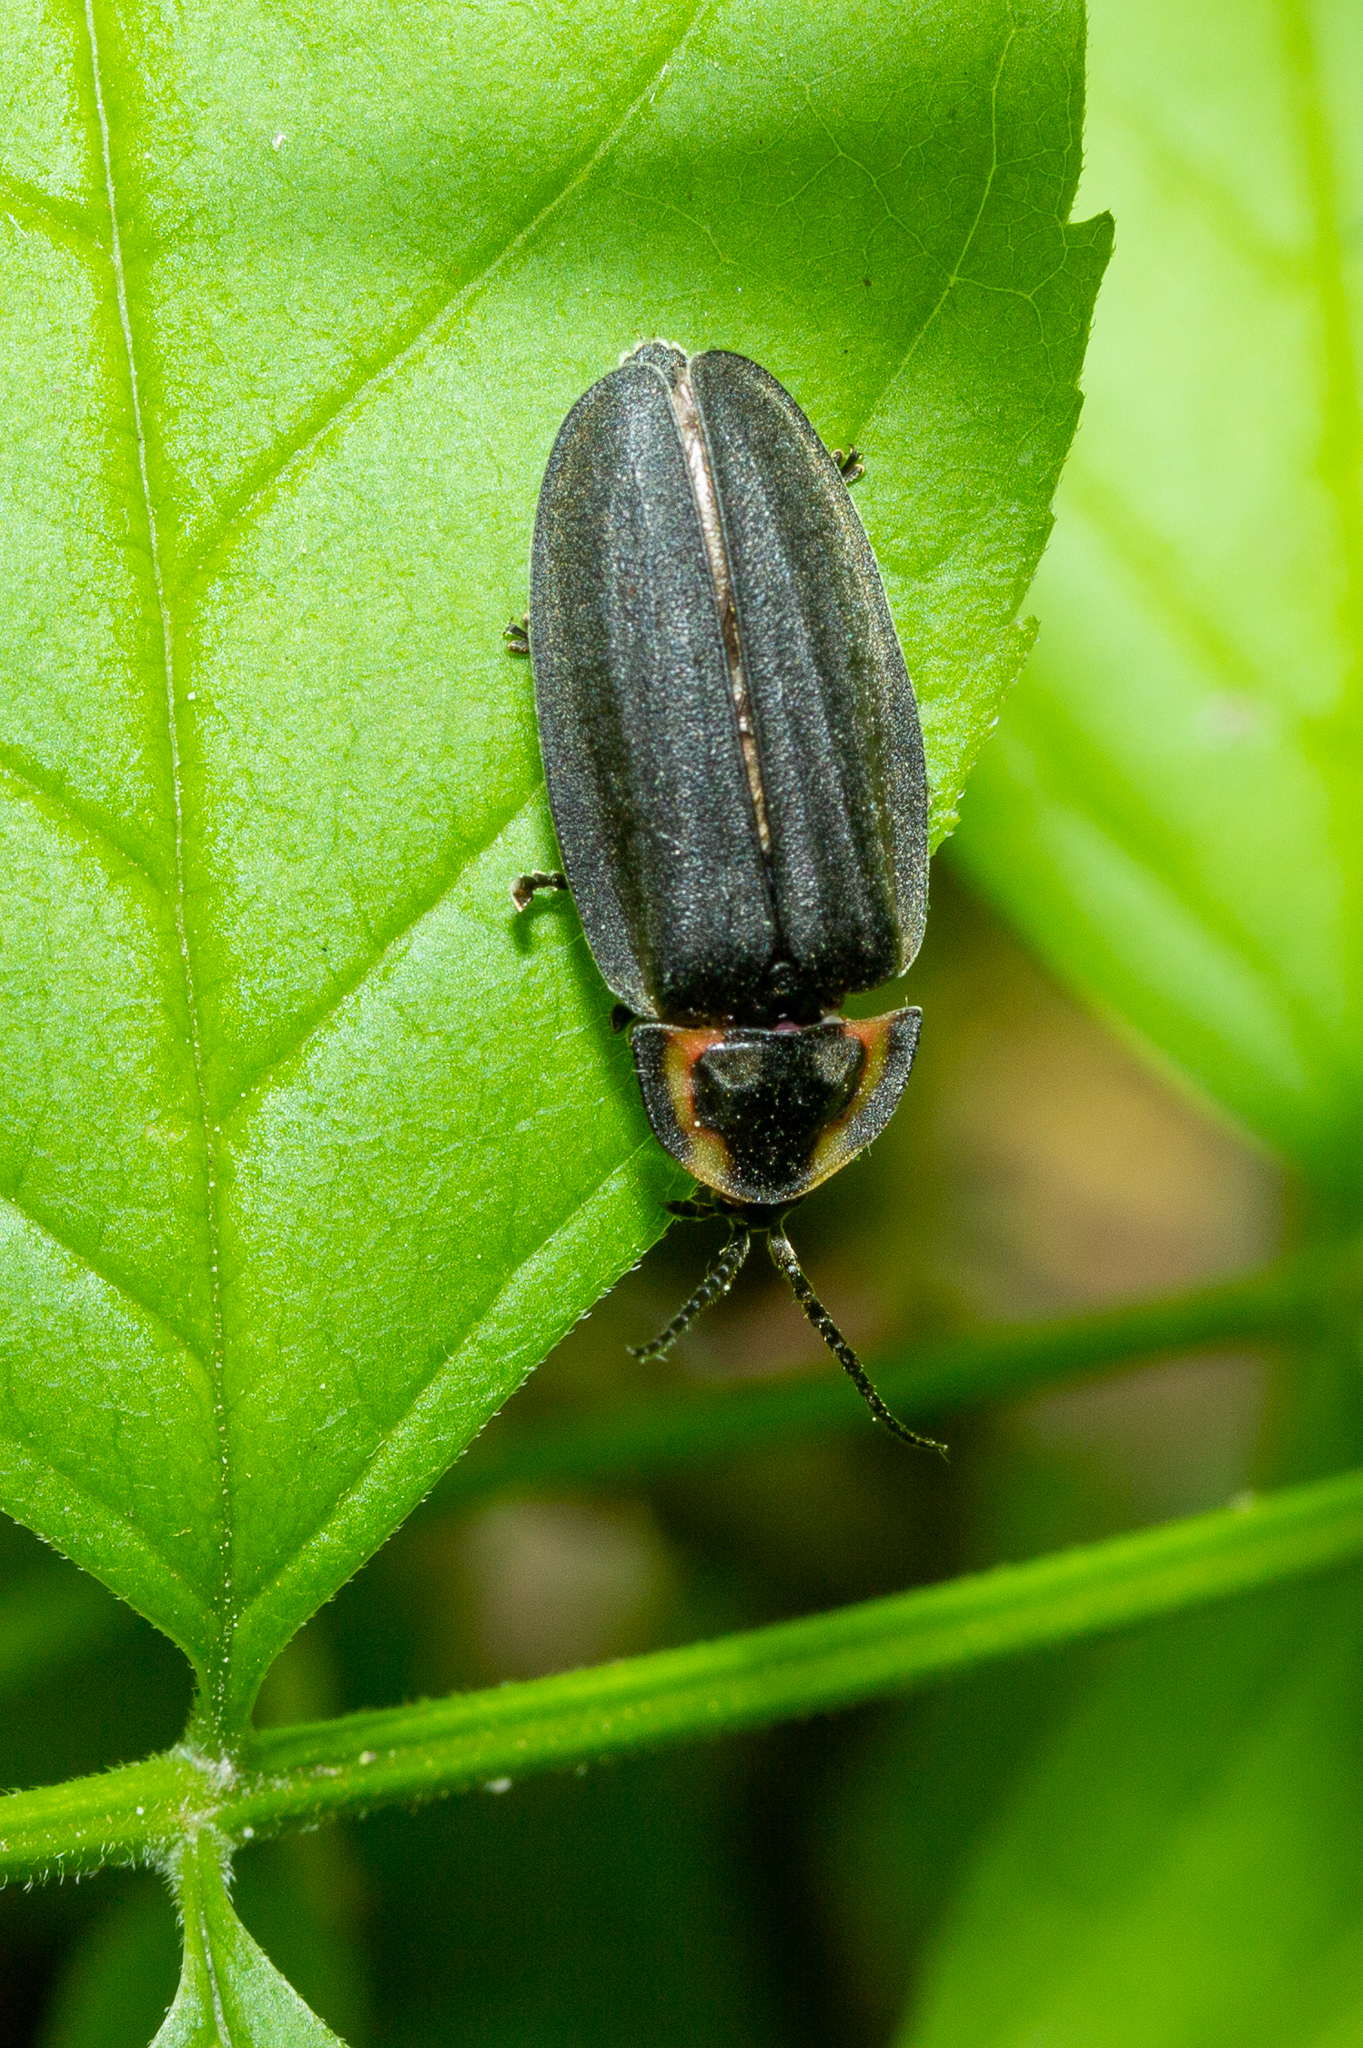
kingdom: Animalia
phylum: Arthropoda
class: Insecta
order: Coleoptera
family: Lampyridae
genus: Photinus
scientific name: Photinus corrusca
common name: Winter firefly
